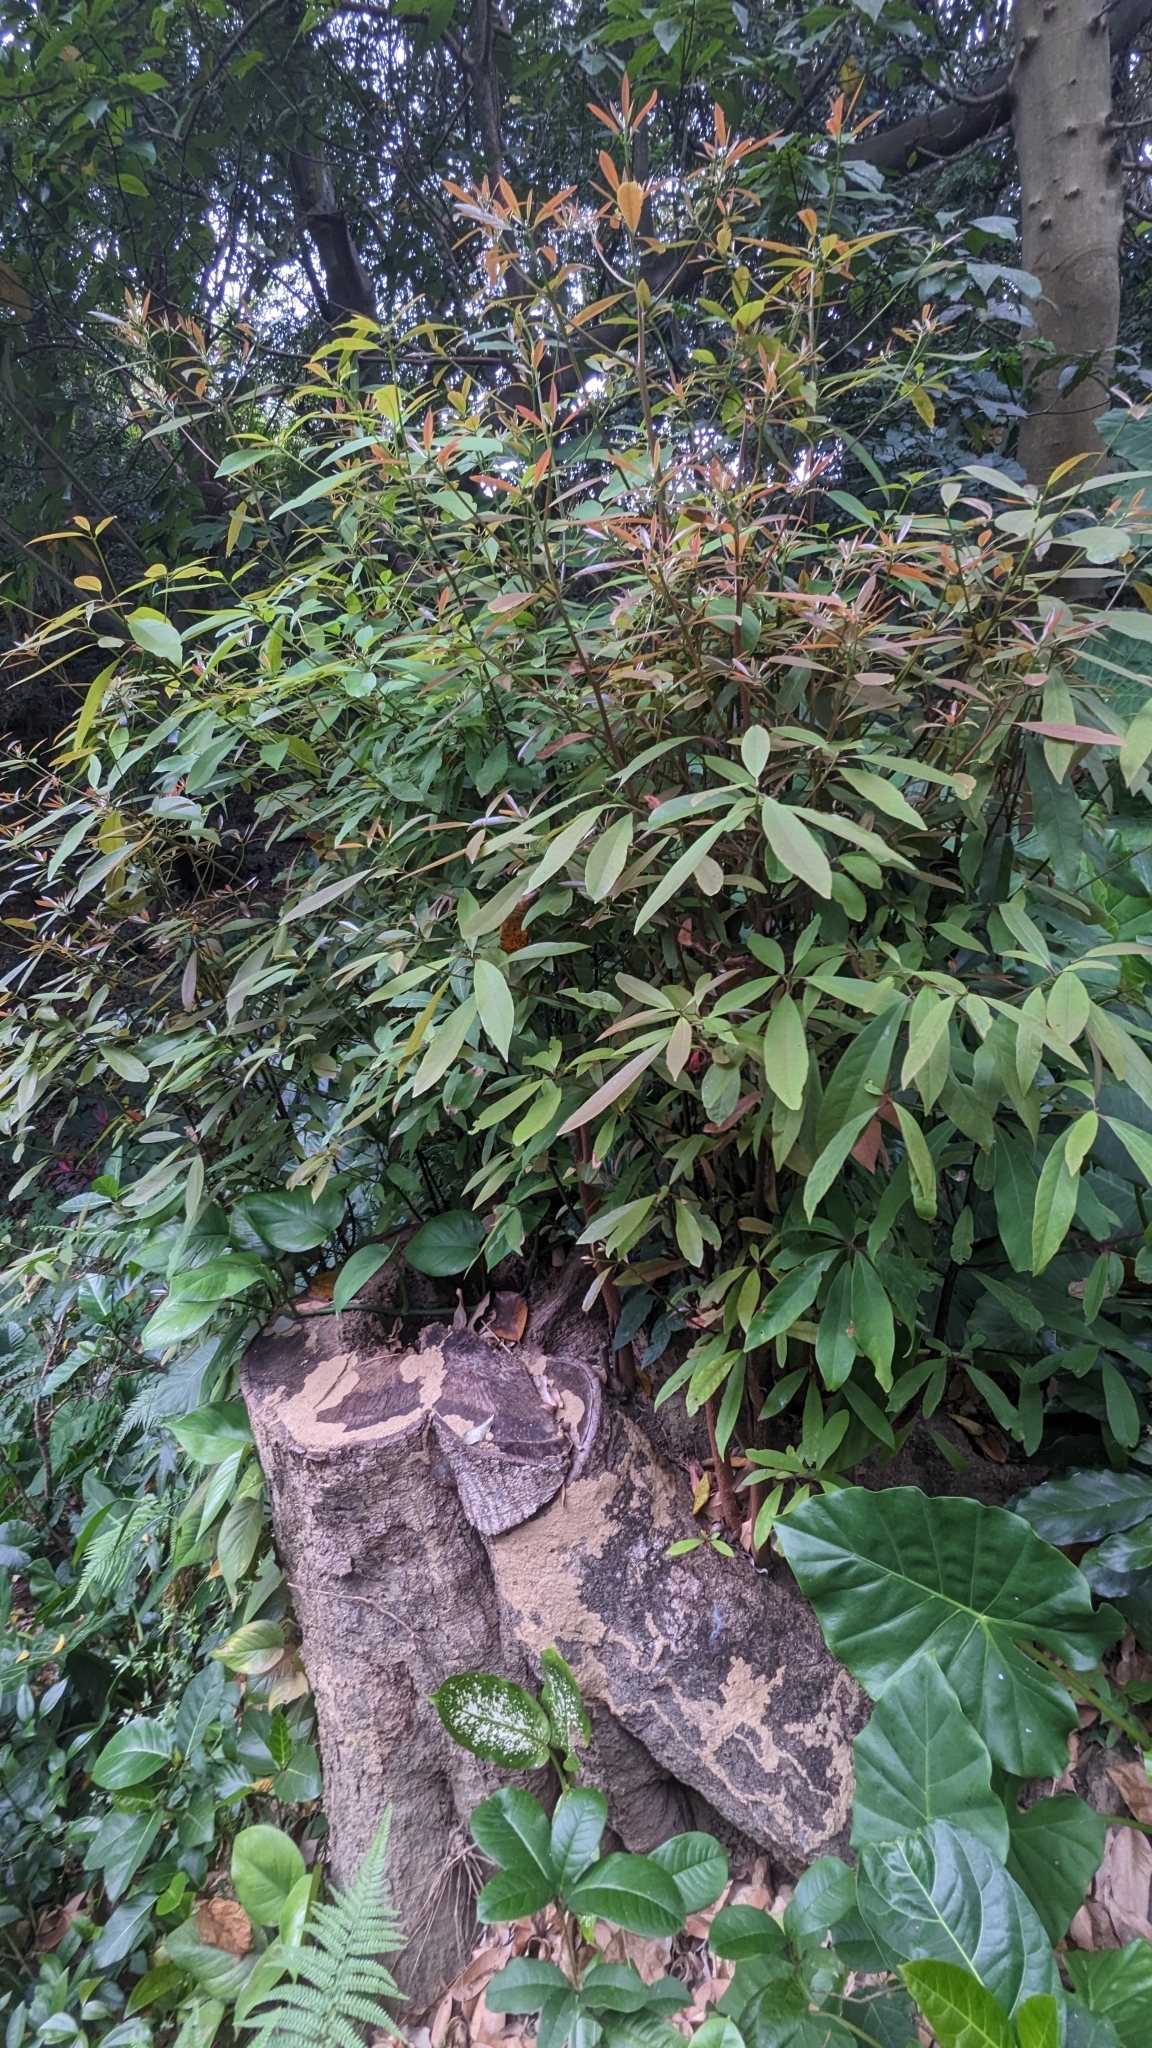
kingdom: Plantae
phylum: Tracheophyta
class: Magnoliopsida
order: Laurales
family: Lauraceae
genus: Machilus
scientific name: Machilus zuihoensis
